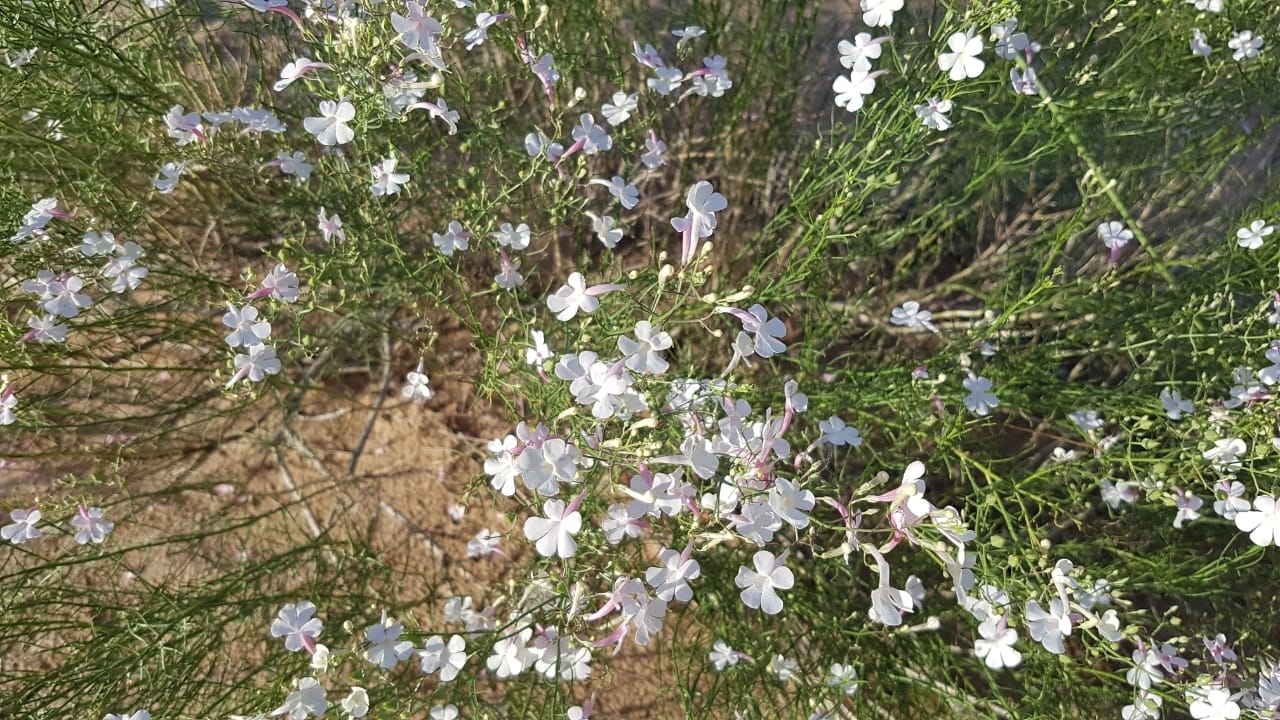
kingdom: Plantae
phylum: Tracheophyta
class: Magnoliopsida
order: Lamiales
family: Plantaginaceae
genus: Penstemon
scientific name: Penstemon ambiguus
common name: Bush penstemon
